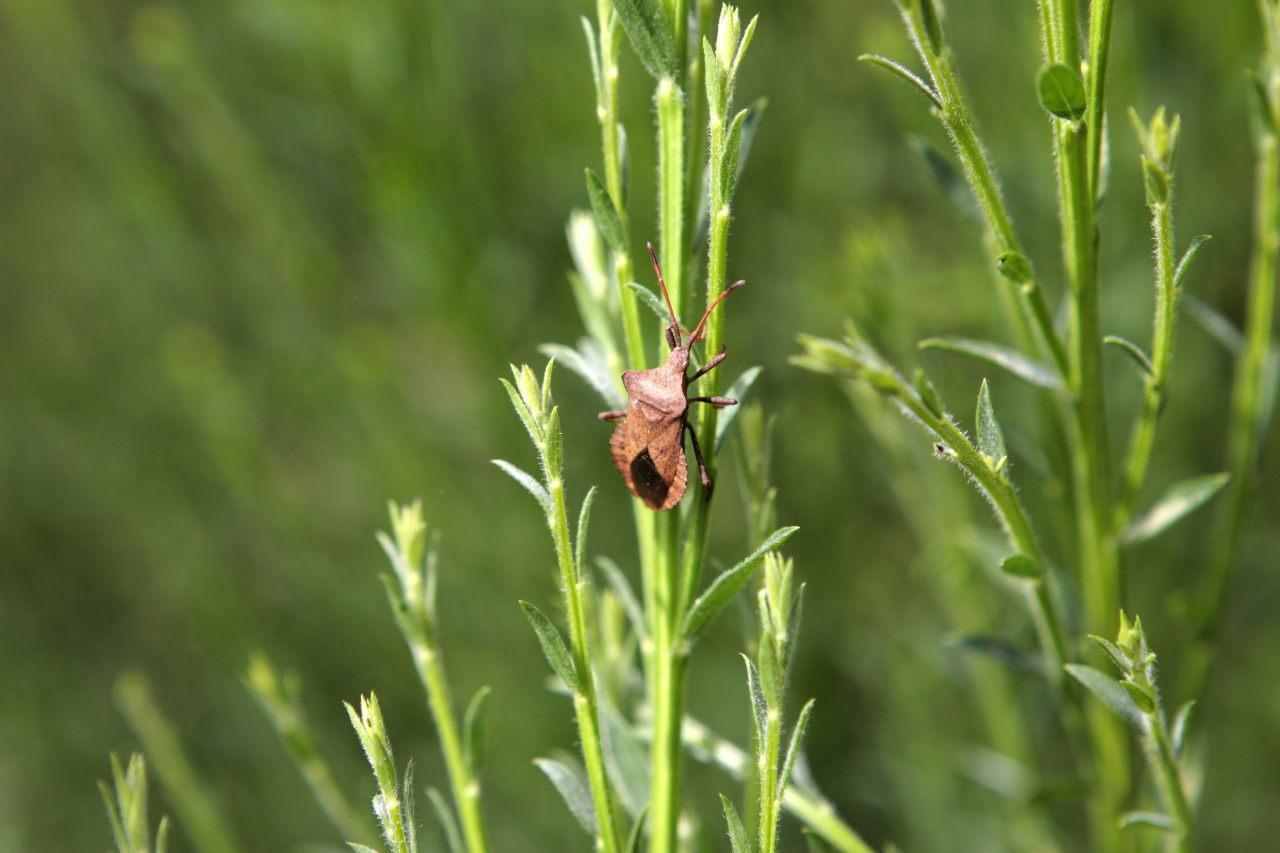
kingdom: Animalia
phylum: Arthropoda
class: Insecta
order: Hemiptera
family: Coreidae
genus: Coreus
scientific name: Coreus marginatus
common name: Dock bug
